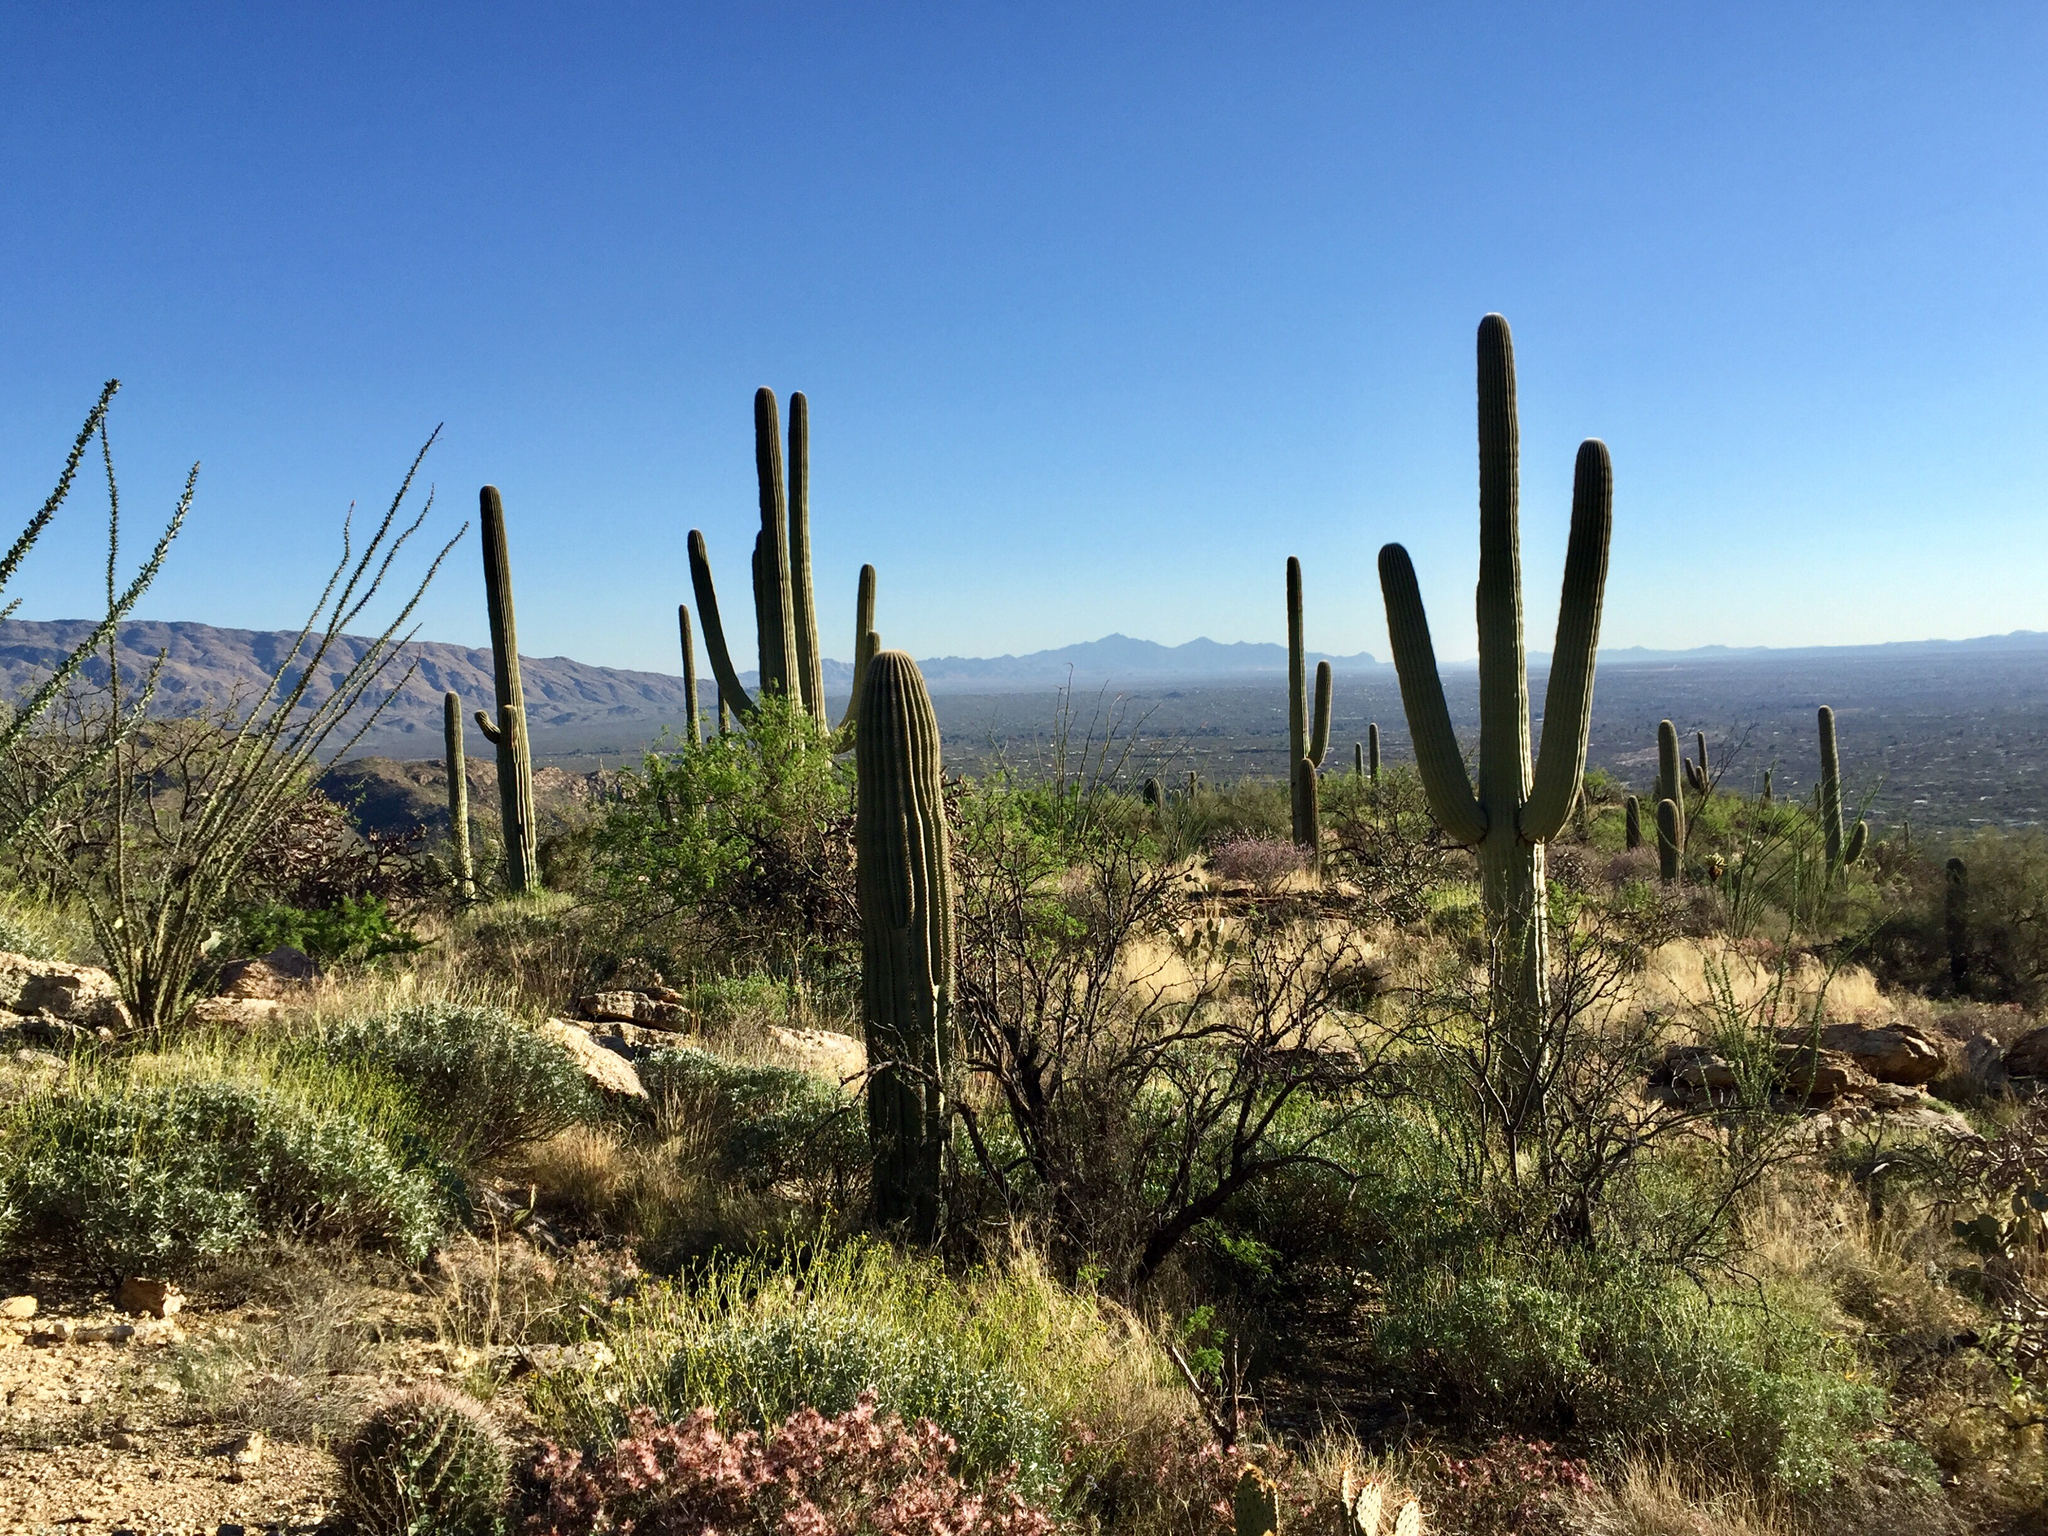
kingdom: Plantae
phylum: Tracheophyta
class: Magnoliopsida
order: Caryophyllales
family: Cactaceae
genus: Carnegiea
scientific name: Carnegiea gigantea
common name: Saguaro
